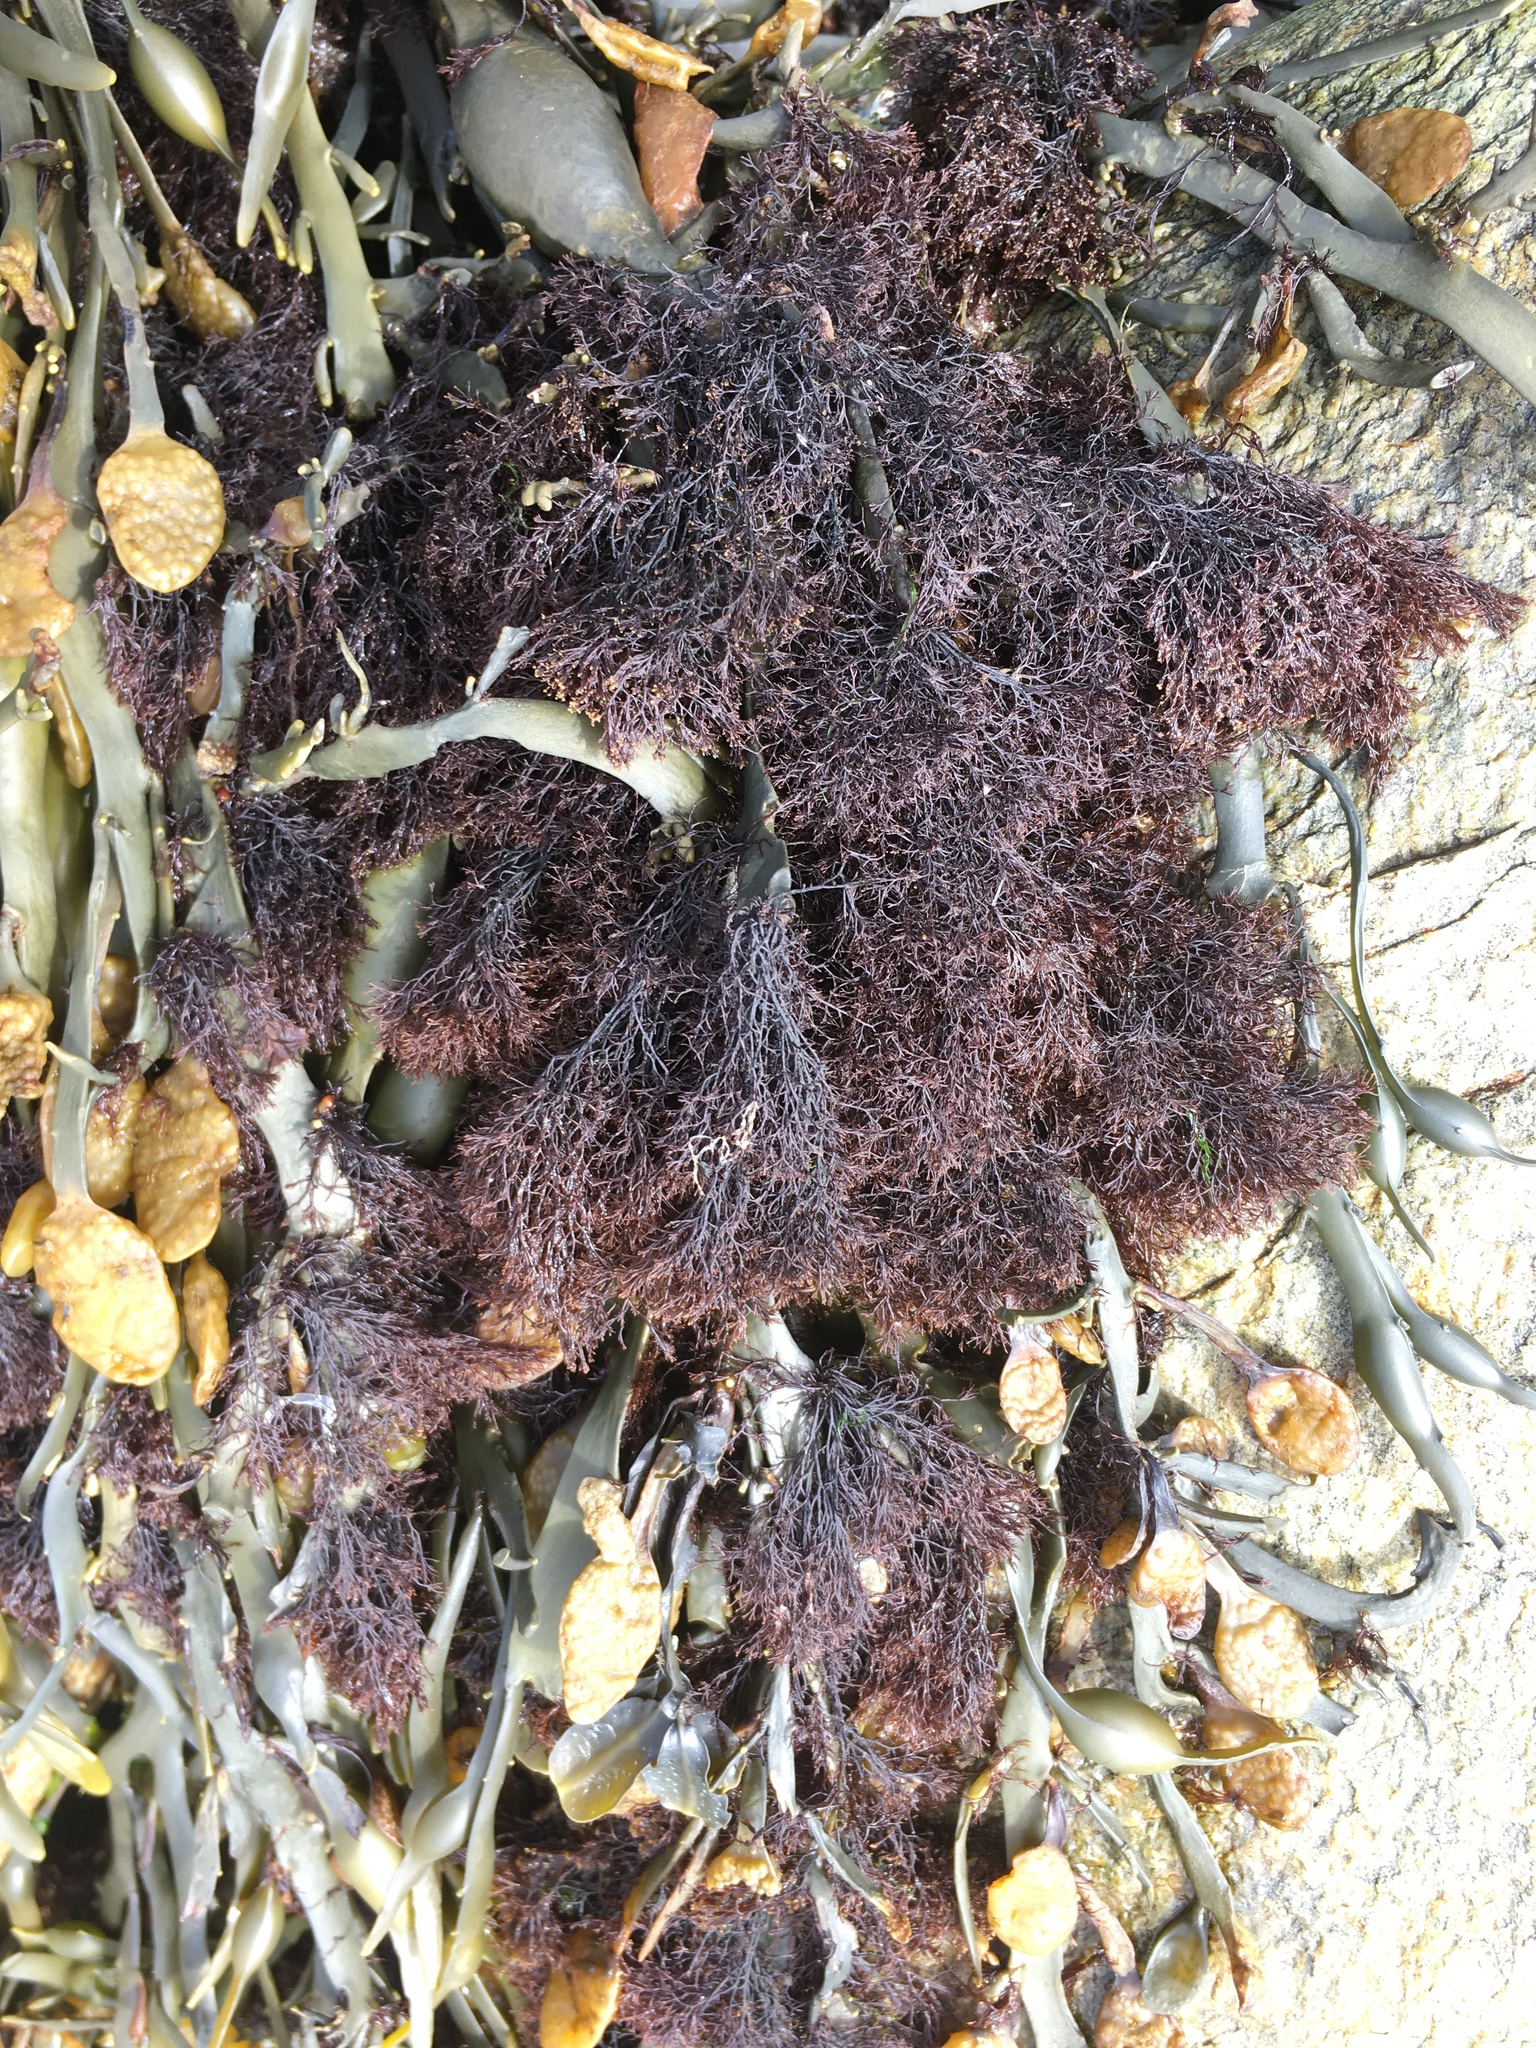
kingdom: Plantae
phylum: Rhodophyta
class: Florideophyceae
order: Ceramiales
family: Rhodomelaceae
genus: Vertebrata
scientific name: Vertebrata lanosa
